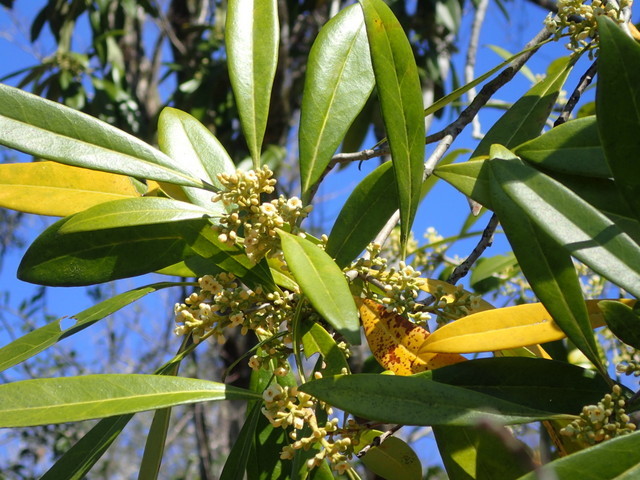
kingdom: Plantae
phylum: Tracheophyta
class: Magnoliopsida
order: Lamiales
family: Oleaceae
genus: Cartrema
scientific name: Cartrema americana
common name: Devilwood
